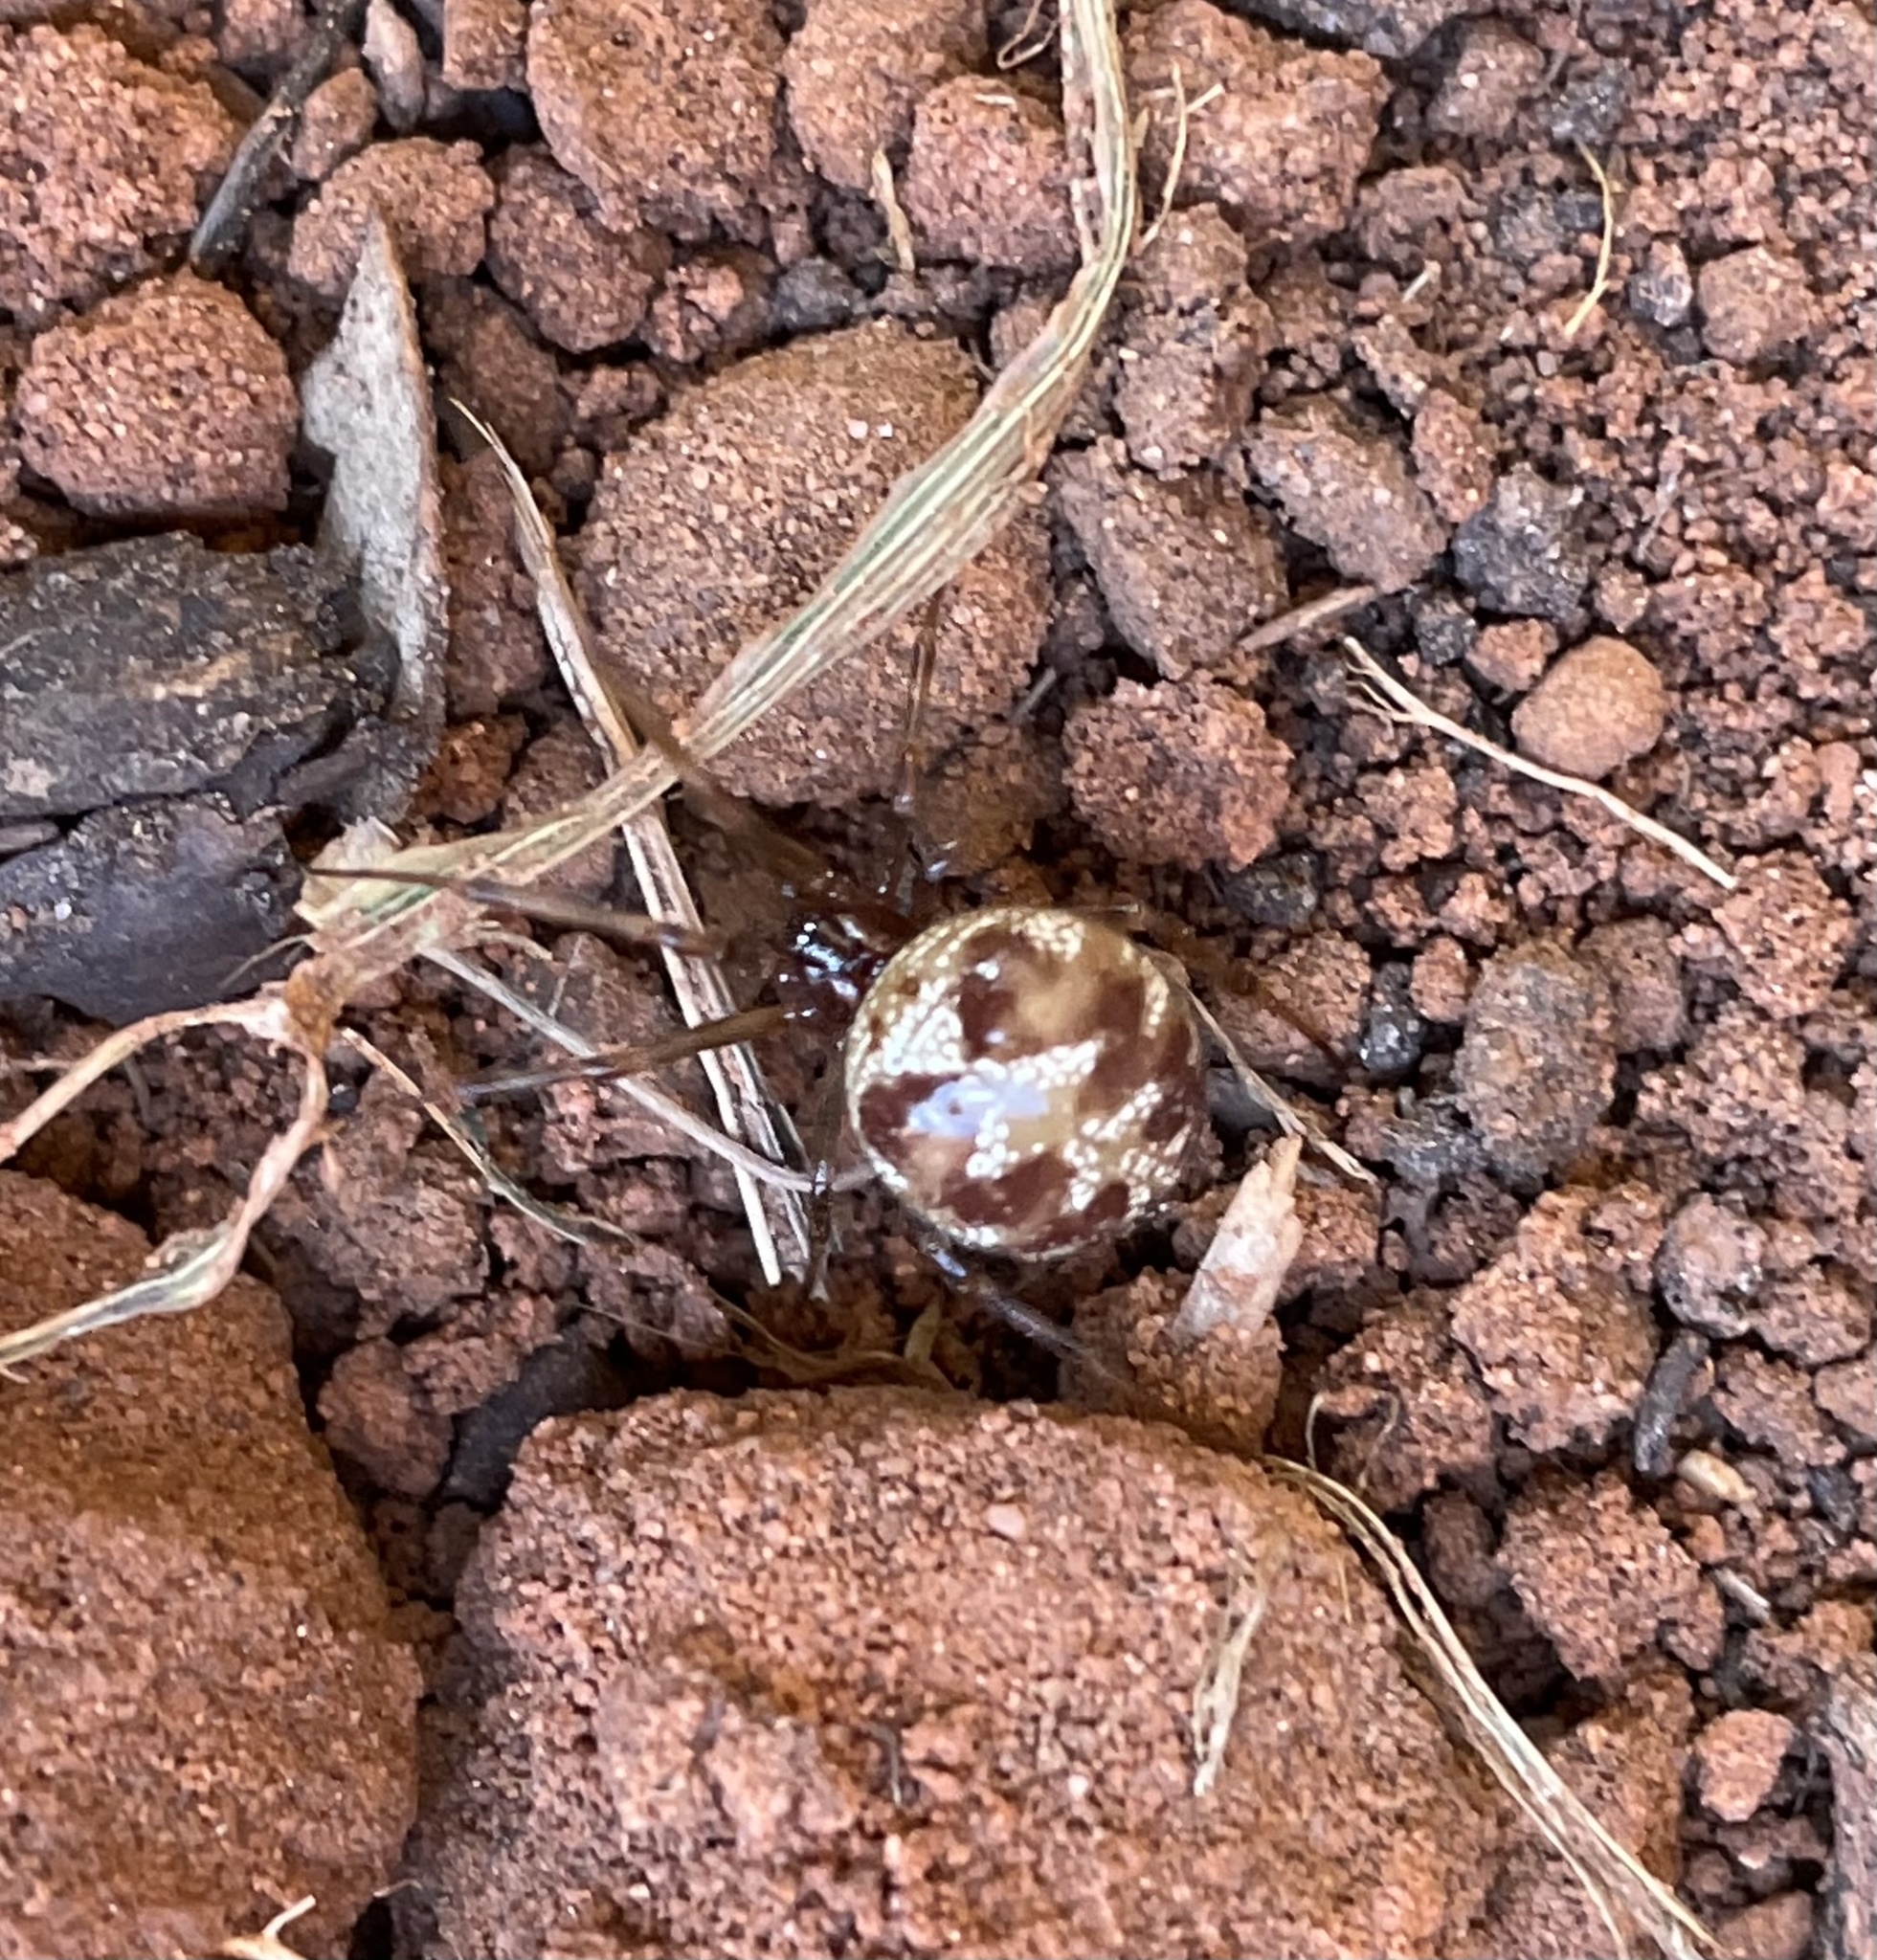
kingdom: Animalia
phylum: Arthropoda
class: Arachnida
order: Araneae
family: Theridiidae
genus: Steatoda
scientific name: Steatoda triangulosa
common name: Triangulate bud spider
